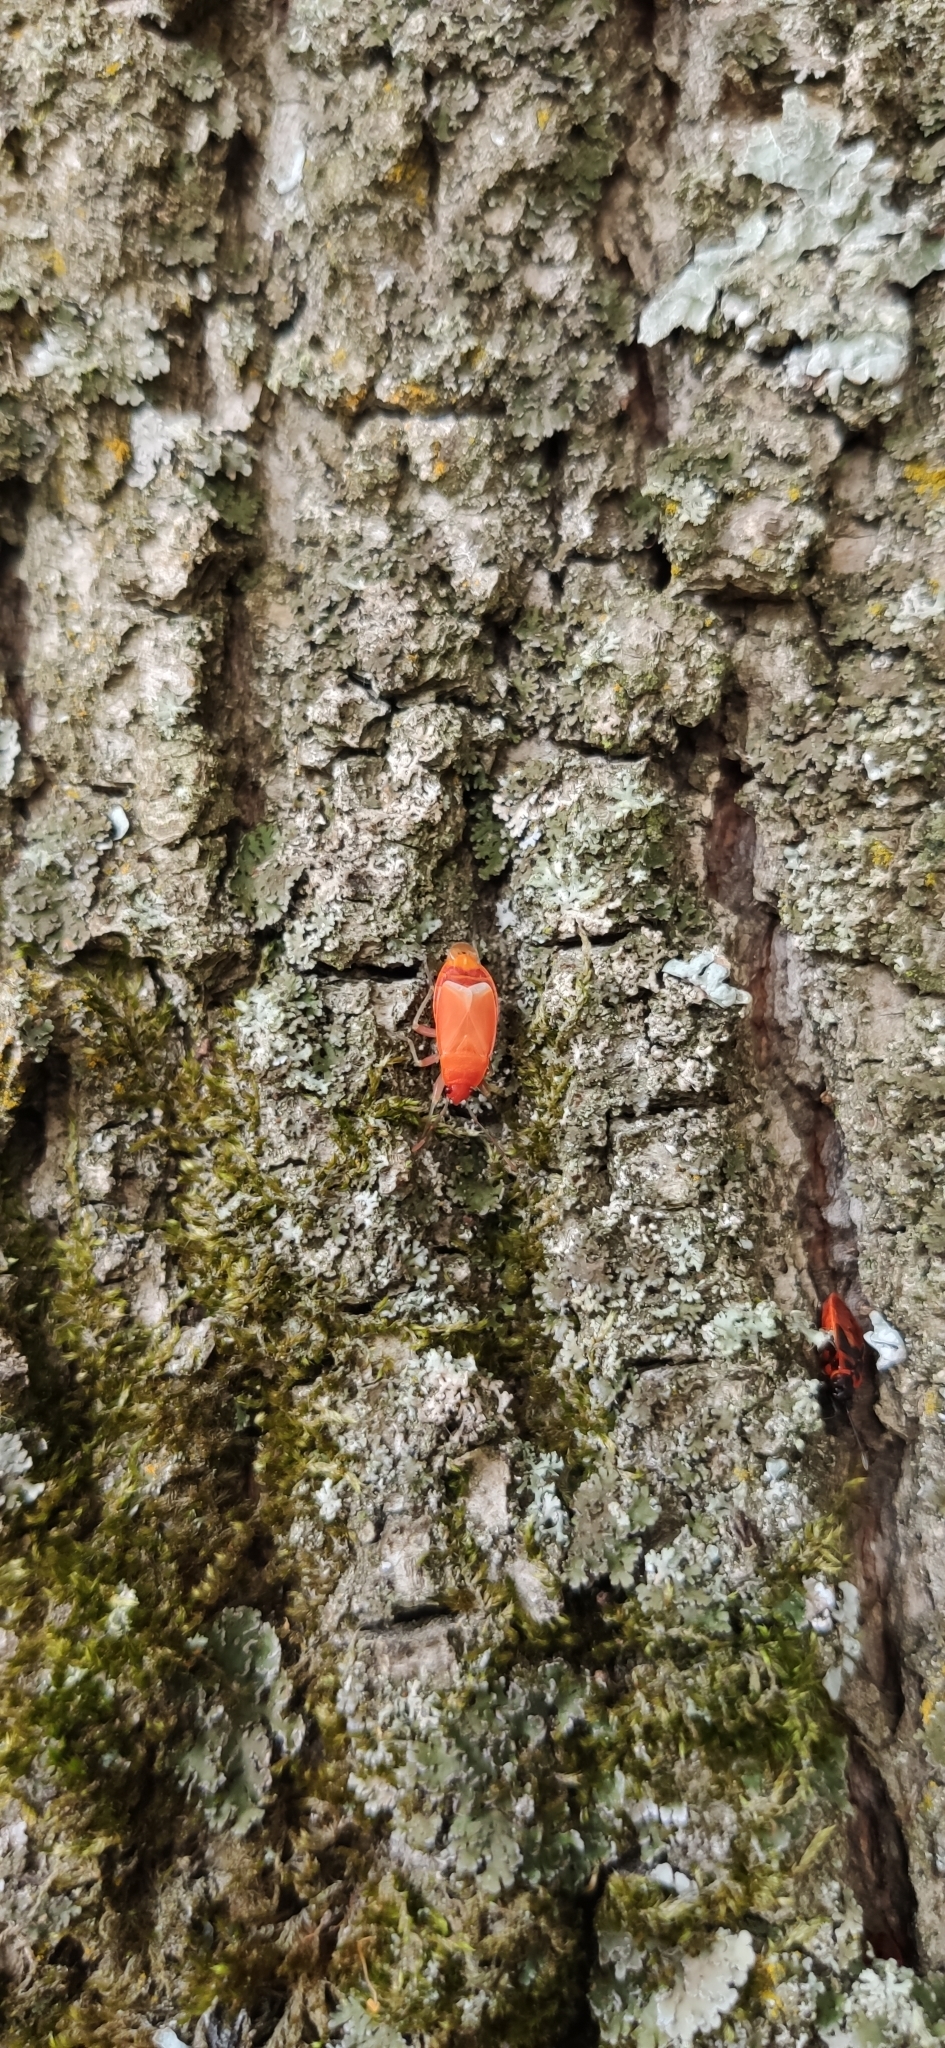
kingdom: Animalia
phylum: Arthropoda
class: Insecta
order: Hemiptera
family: Pyrrhocoridae
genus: Pyrrhocoris
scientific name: Pyrrhocoris apterus
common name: Firebug
